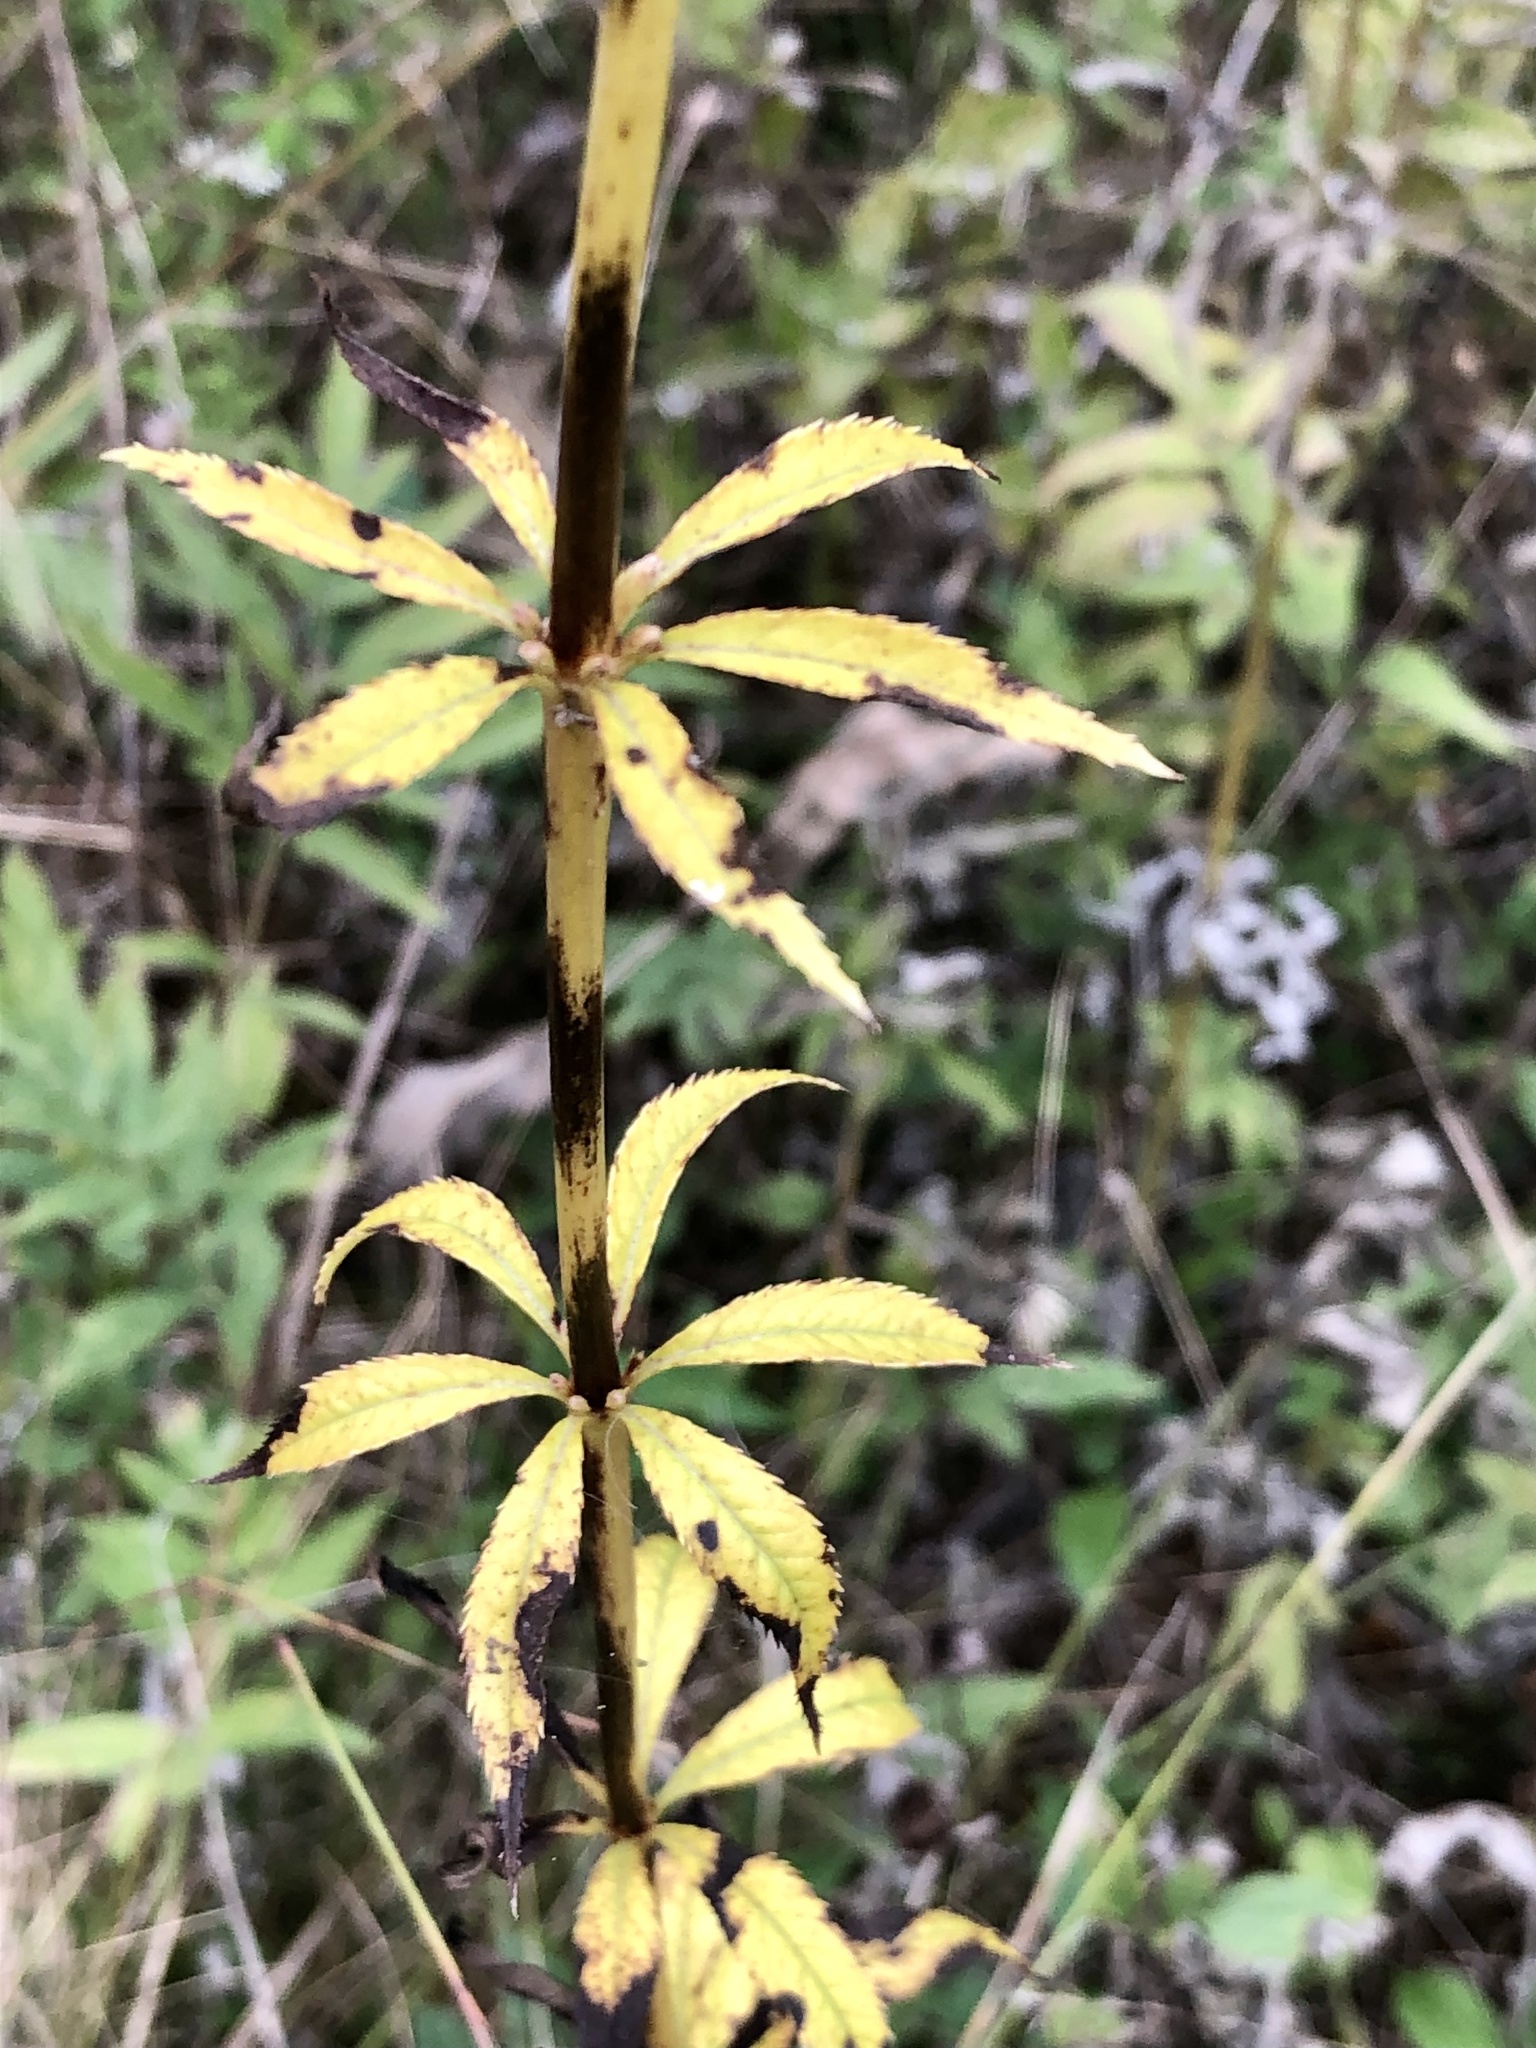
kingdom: Plantae
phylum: Tracheophyta
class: Magnoliopsida
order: Lamiales
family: Plantaginaceae
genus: Veronicastrum
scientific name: Veronicastrum virginicum
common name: Blackroot
